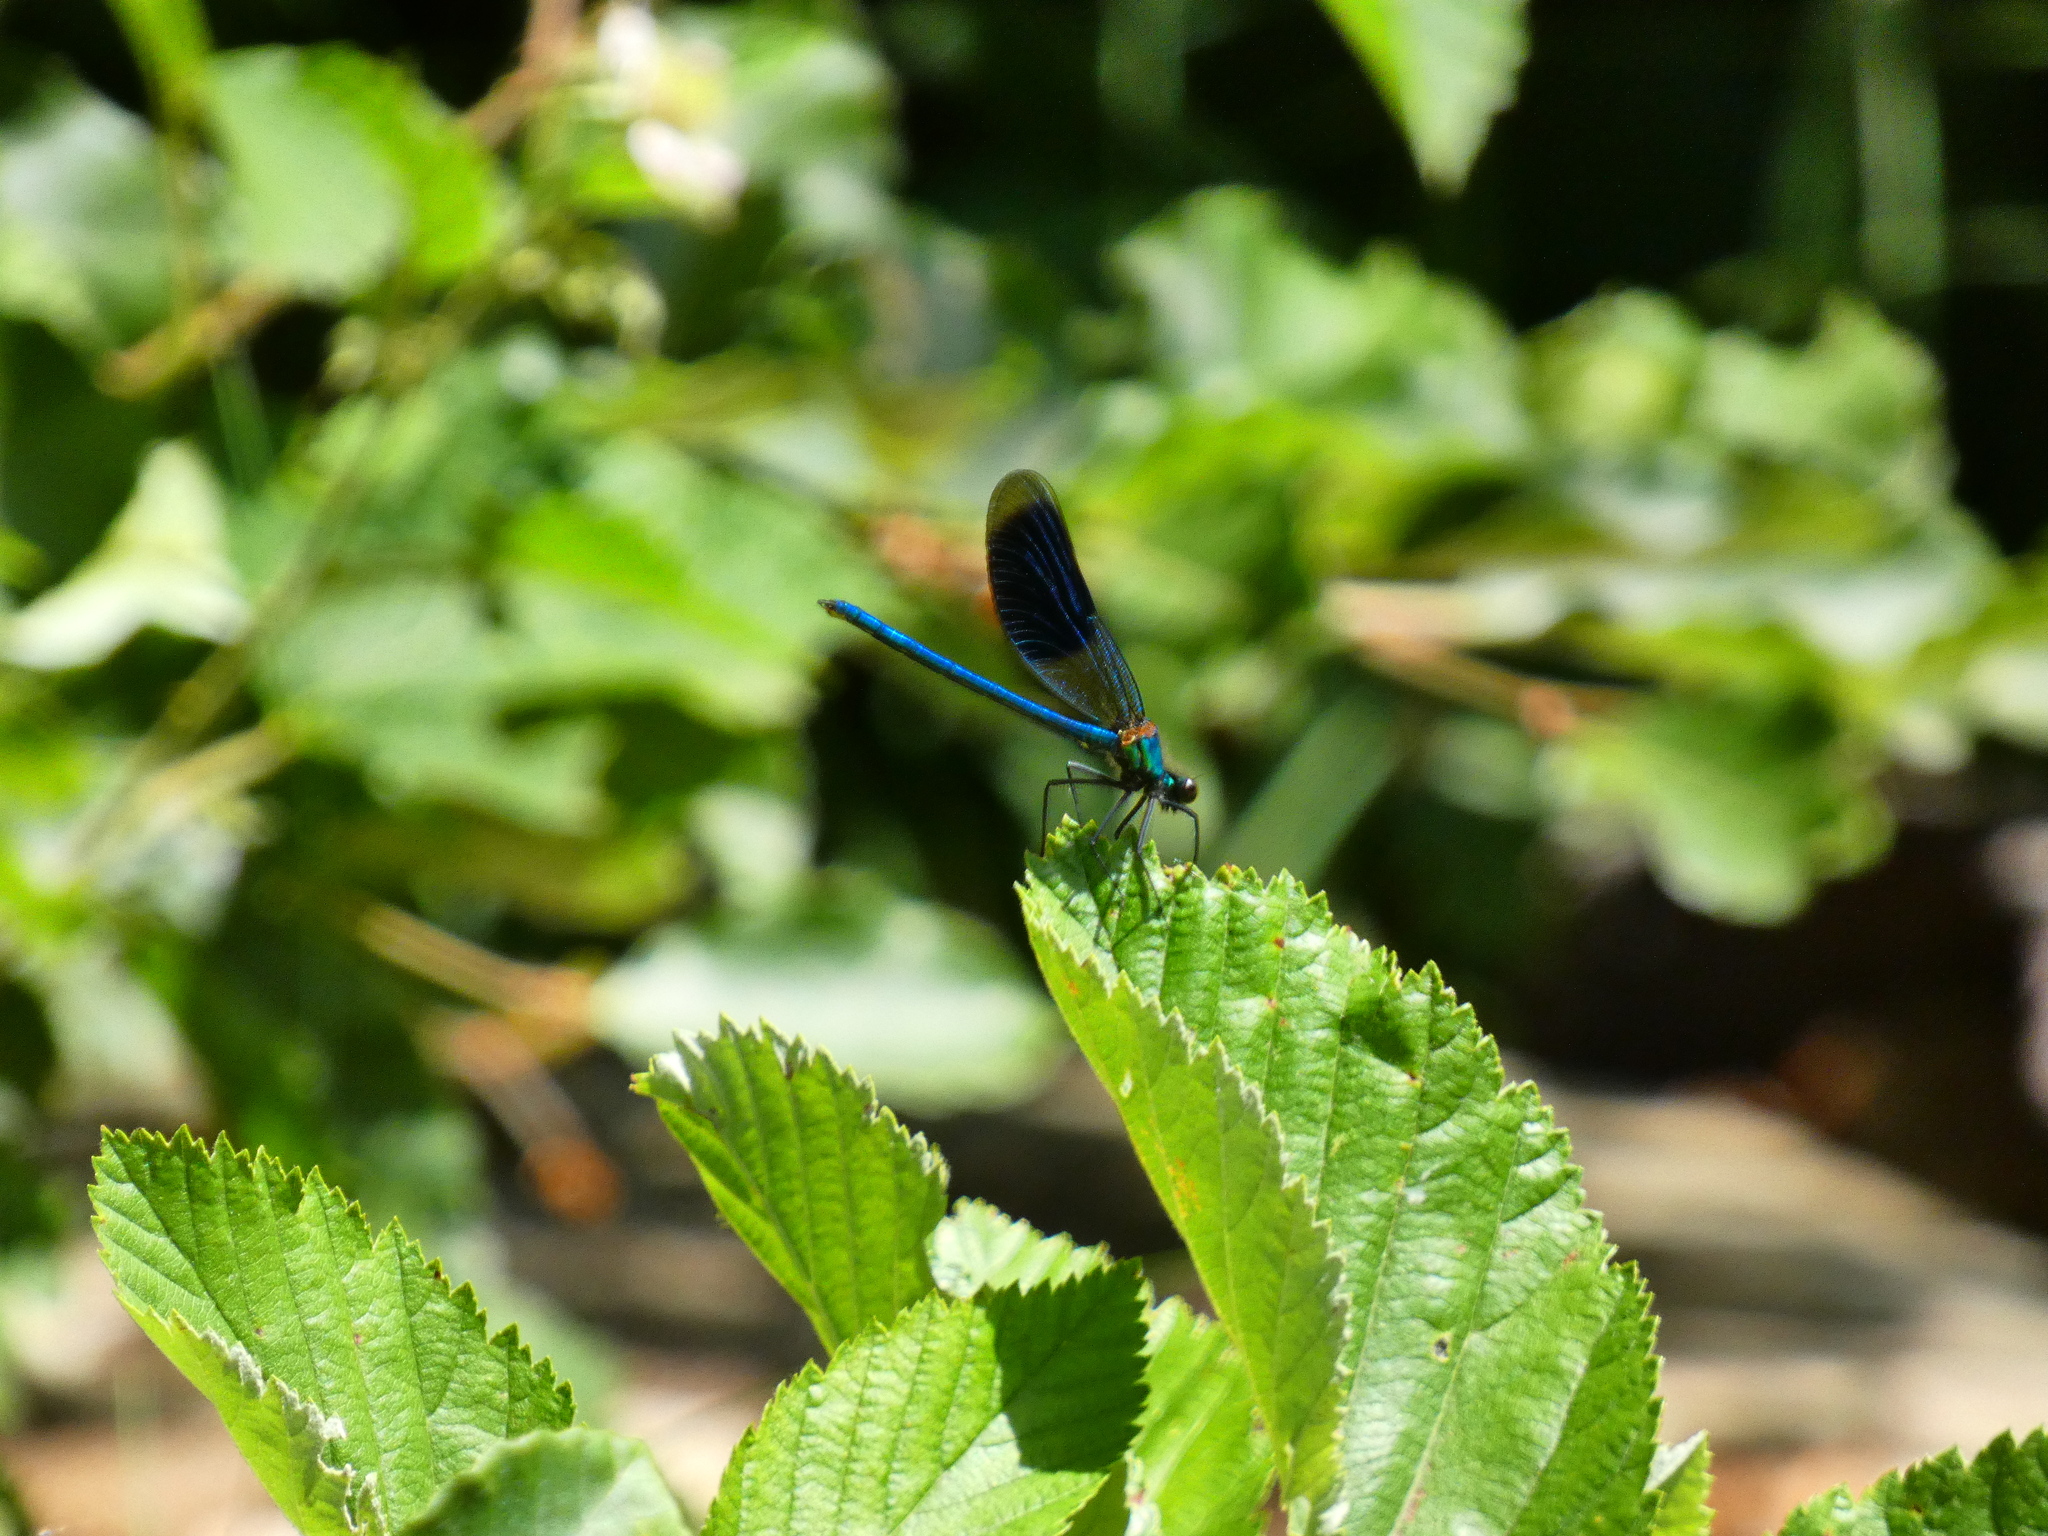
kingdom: Animalia
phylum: Arthropoda
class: Insecta
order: Odonata
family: Calopterygidae
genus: Calopteryx
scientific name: Calopteryx splendens
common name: Banded demoiselle
